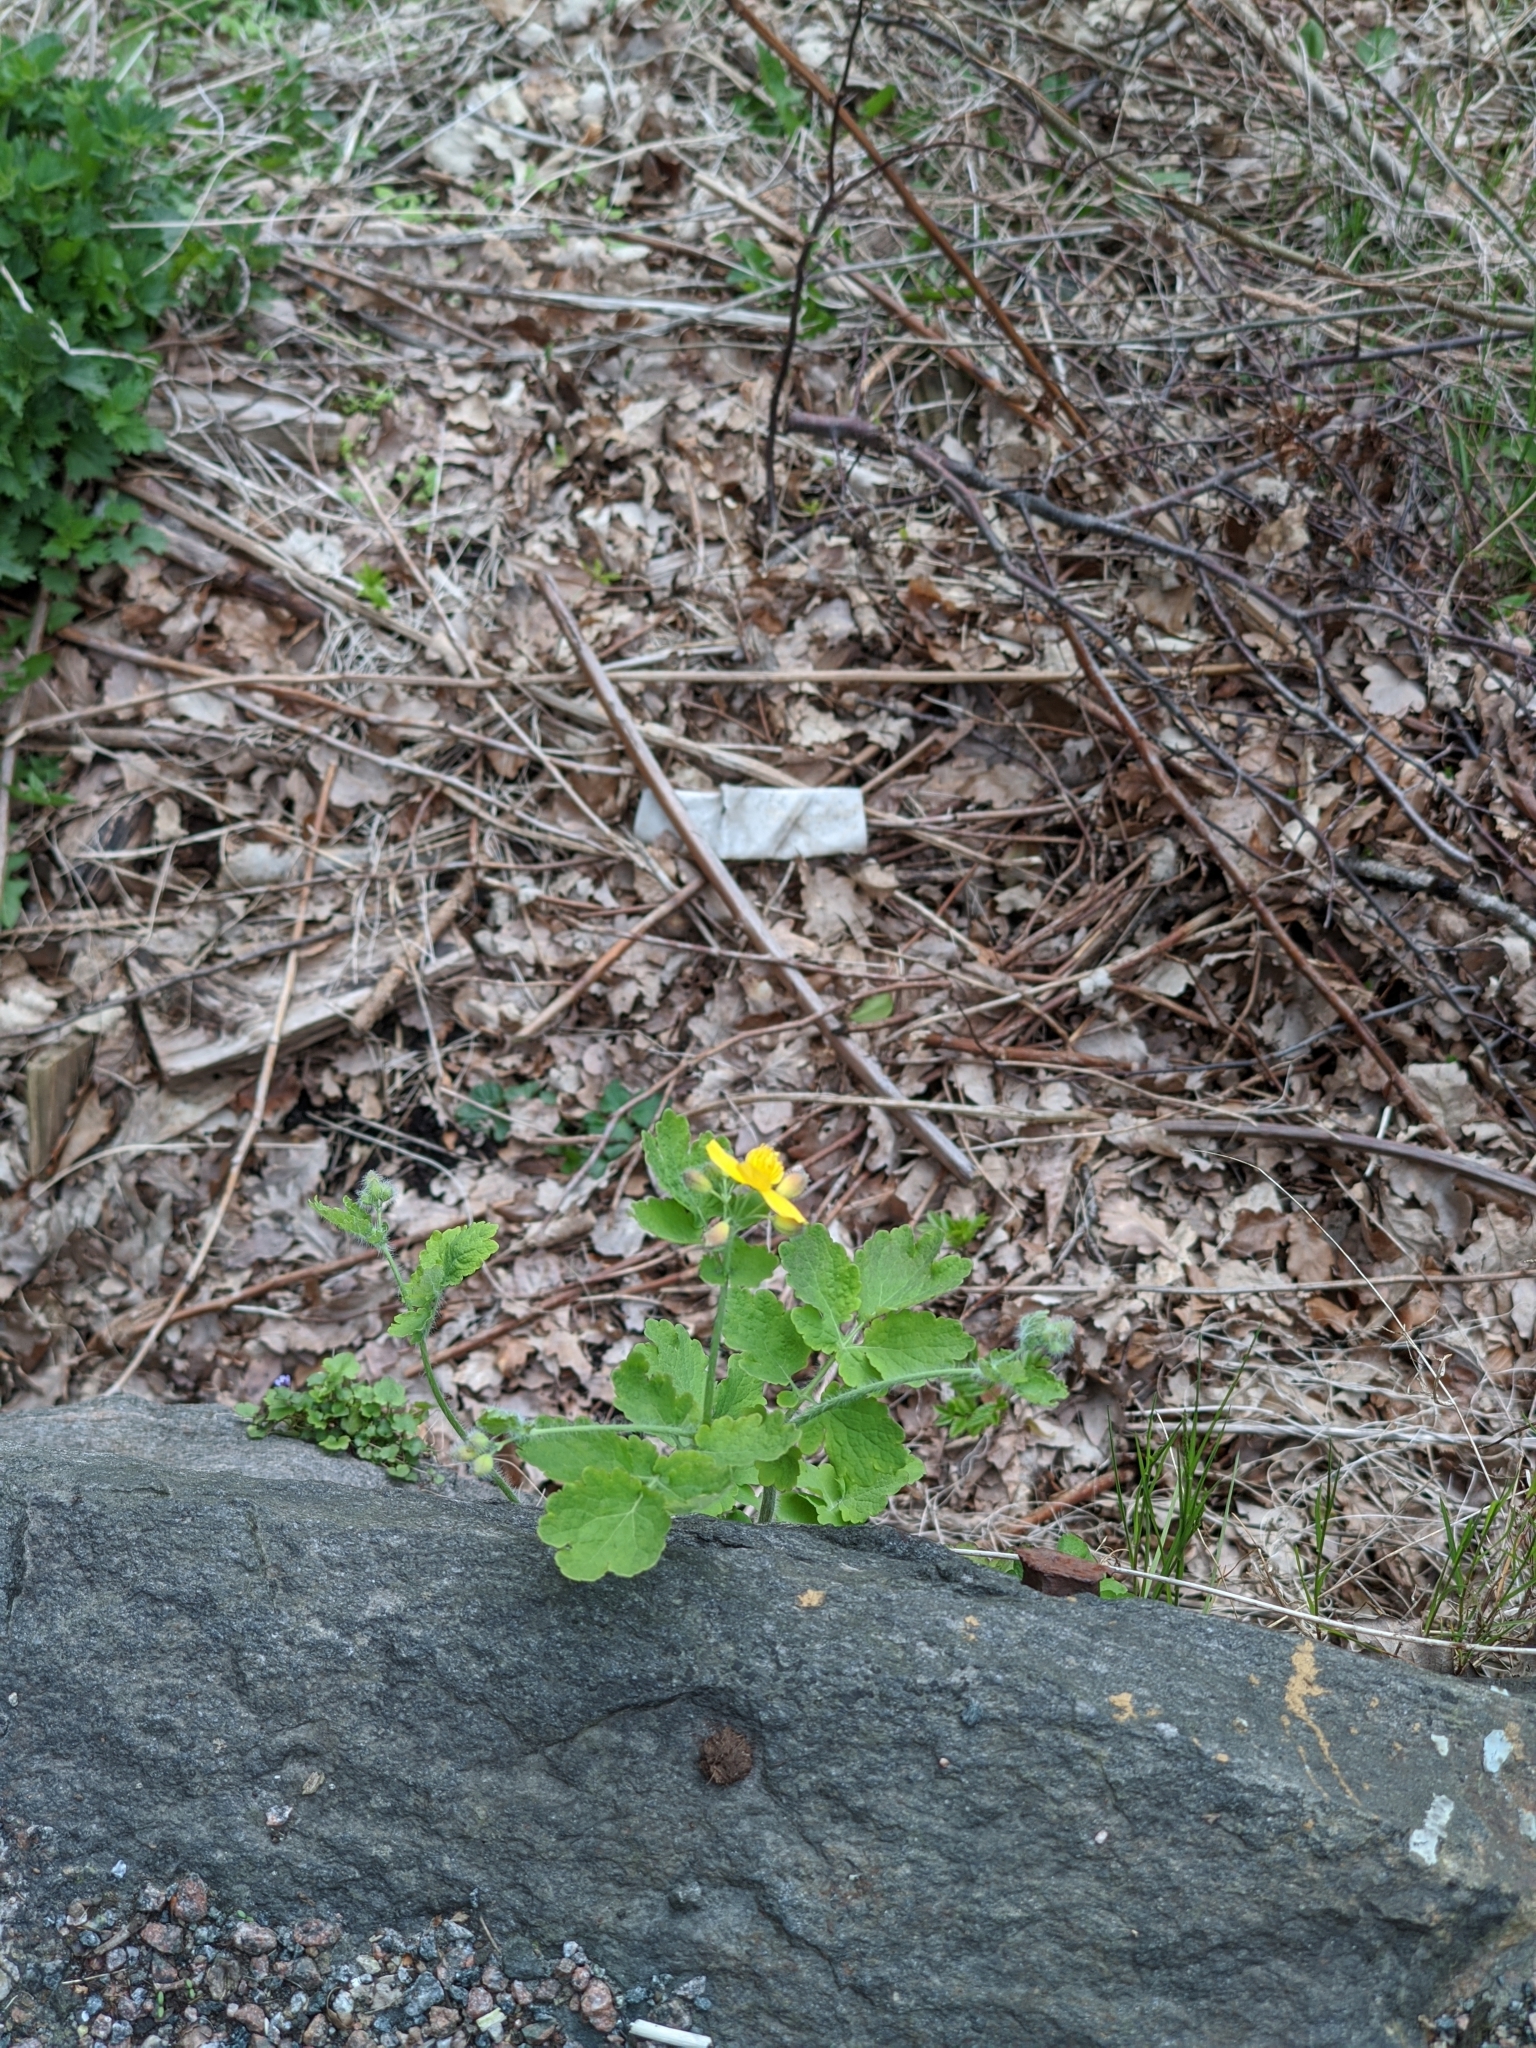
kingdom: Plantae
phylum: Tracheophyta
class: Magnoliopsida
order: Ranunculales
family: Papaveraceae
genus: Chelidonium
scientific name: Chelidonium majus
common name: Greater celandine
